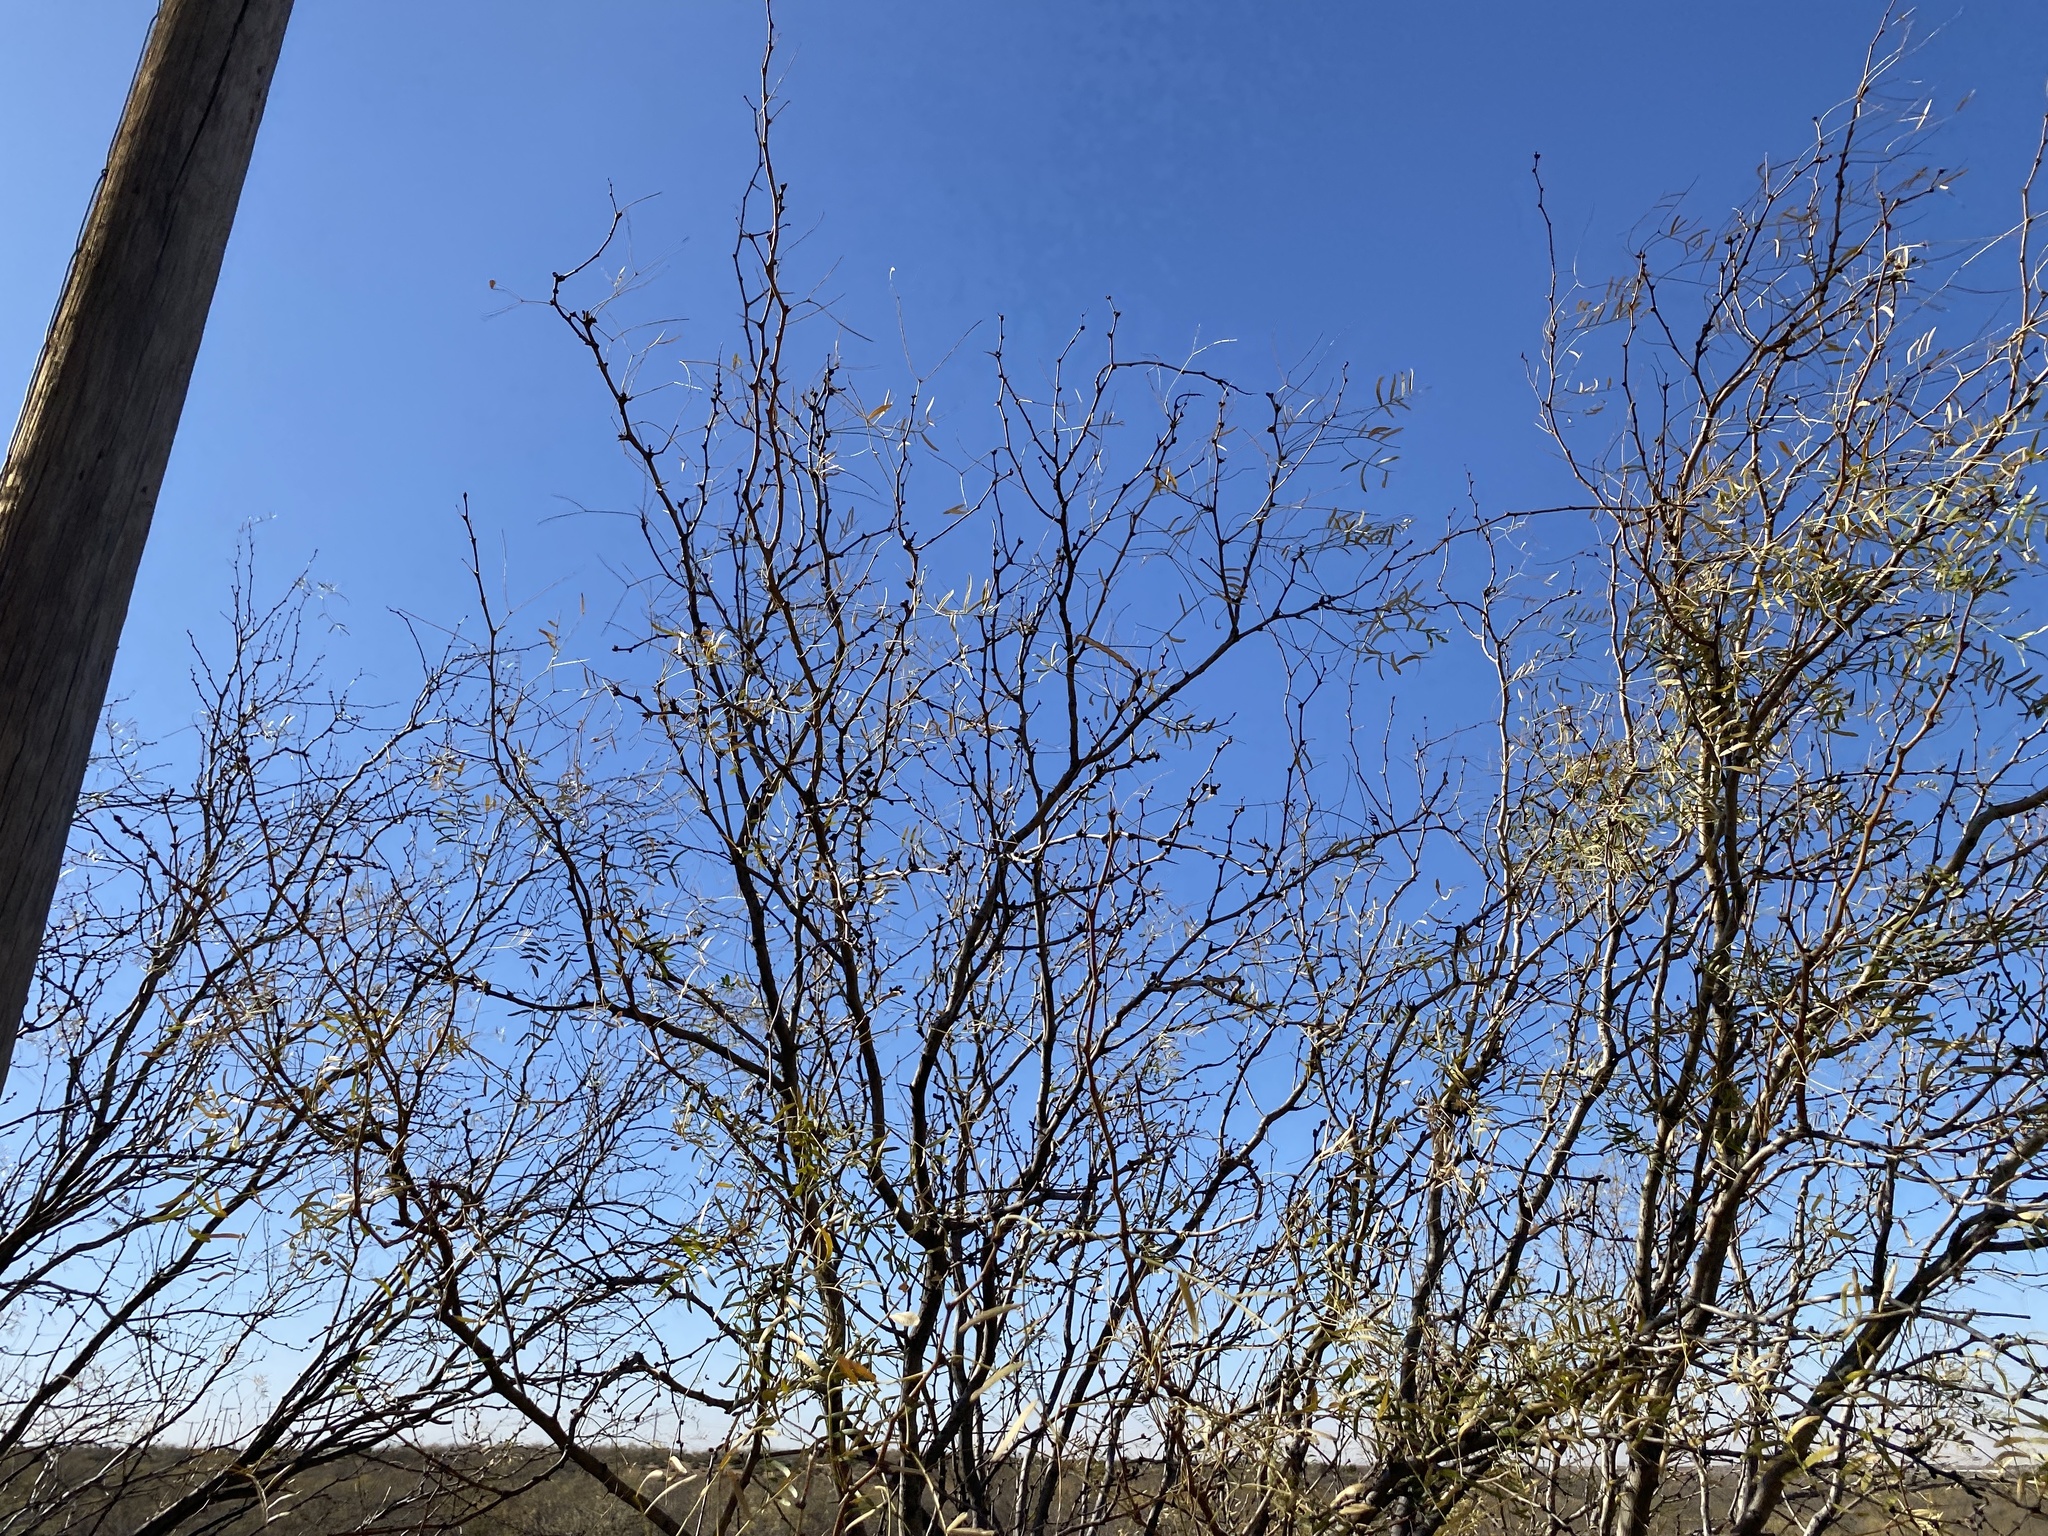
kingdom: Plantae
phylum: Tracheophyta
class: Magnoliopsida
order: Fabales
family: Fabaceae
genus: Prosopis
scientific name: Prosopis glandulosa
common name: Honey mesquite
